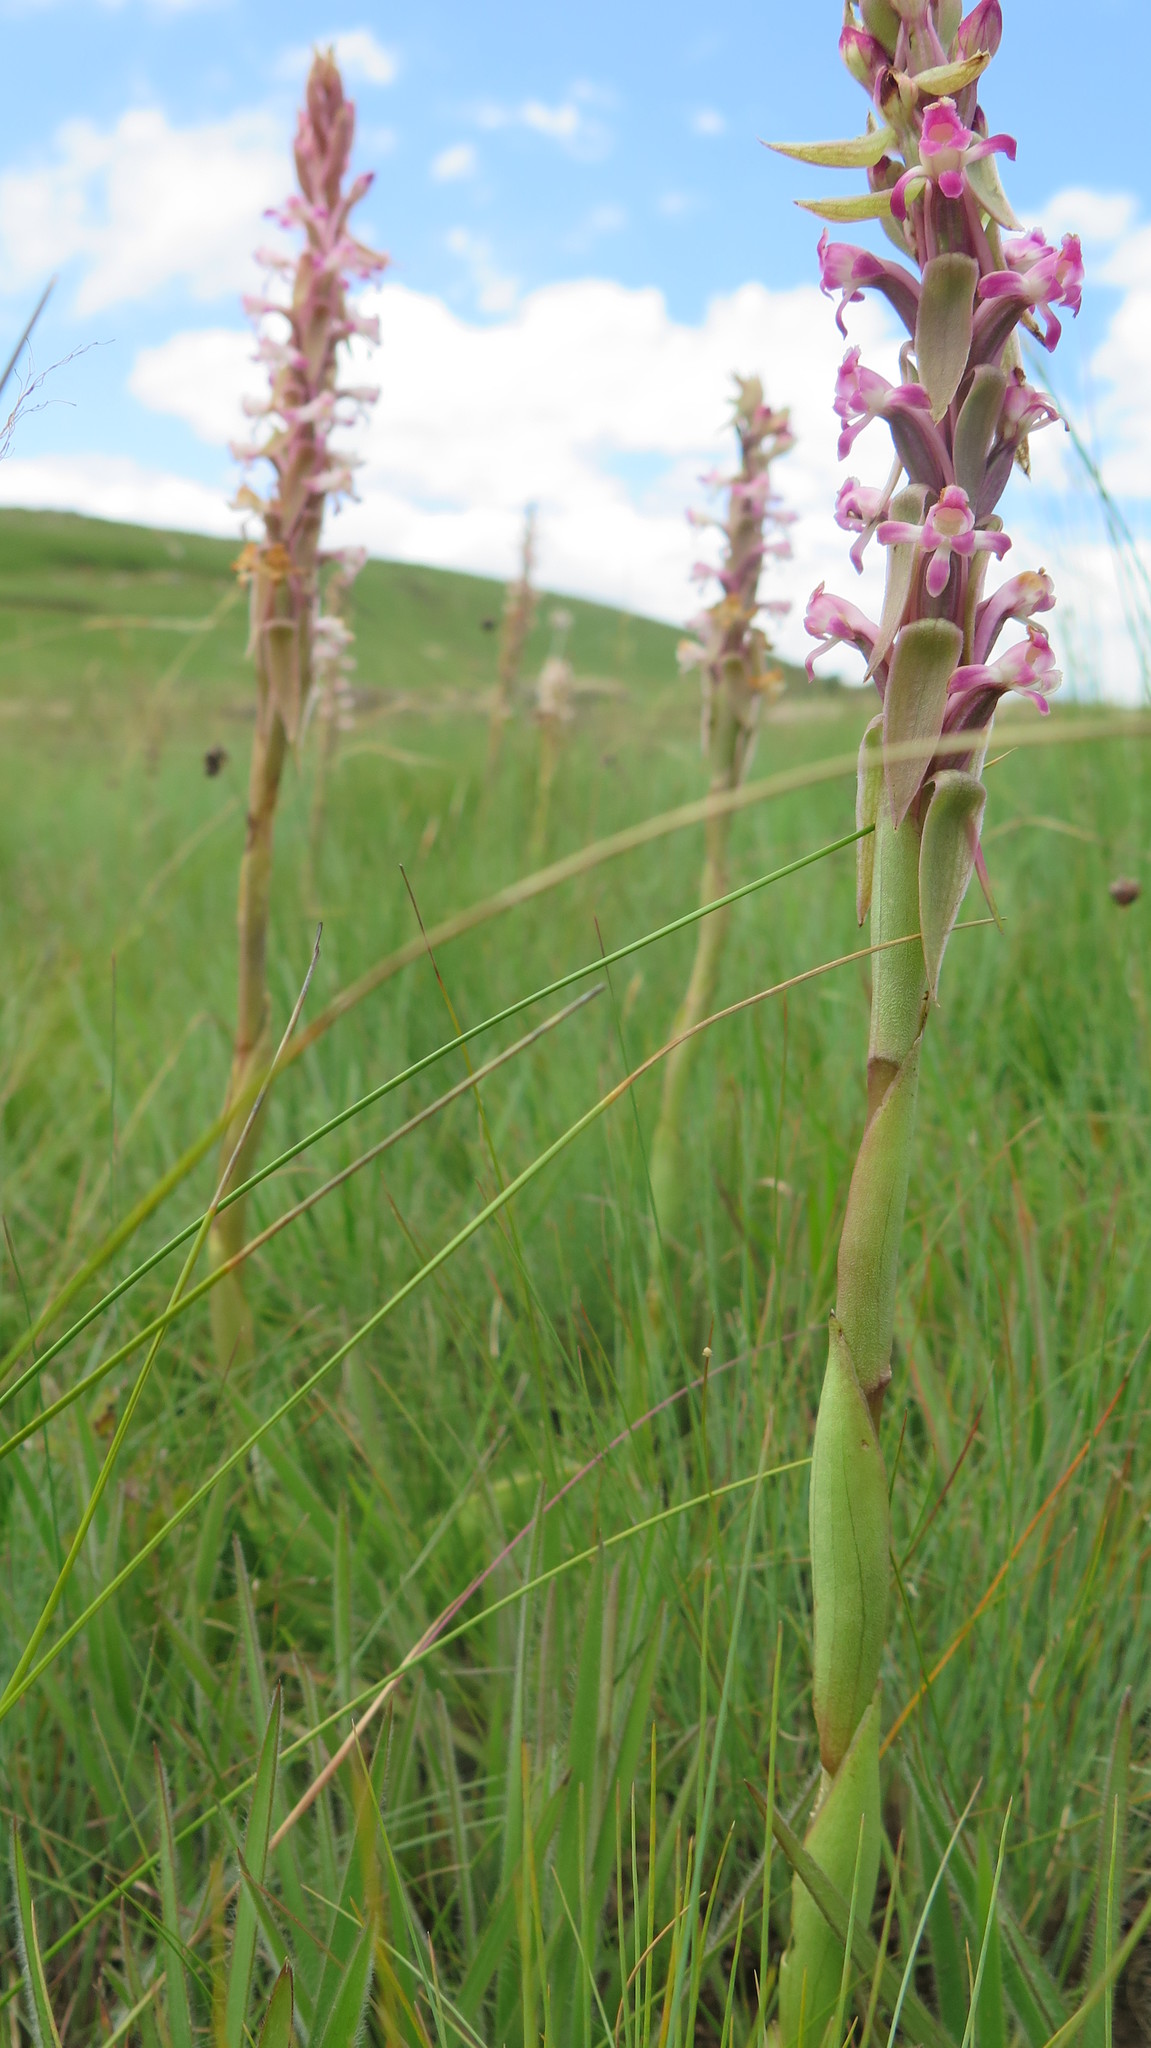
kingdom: Plantae
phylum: Tracheophyta
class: Liliopsida
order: Asparagales
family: Orchidaceae
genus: Satyrium
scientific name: Satyrium longicauda
